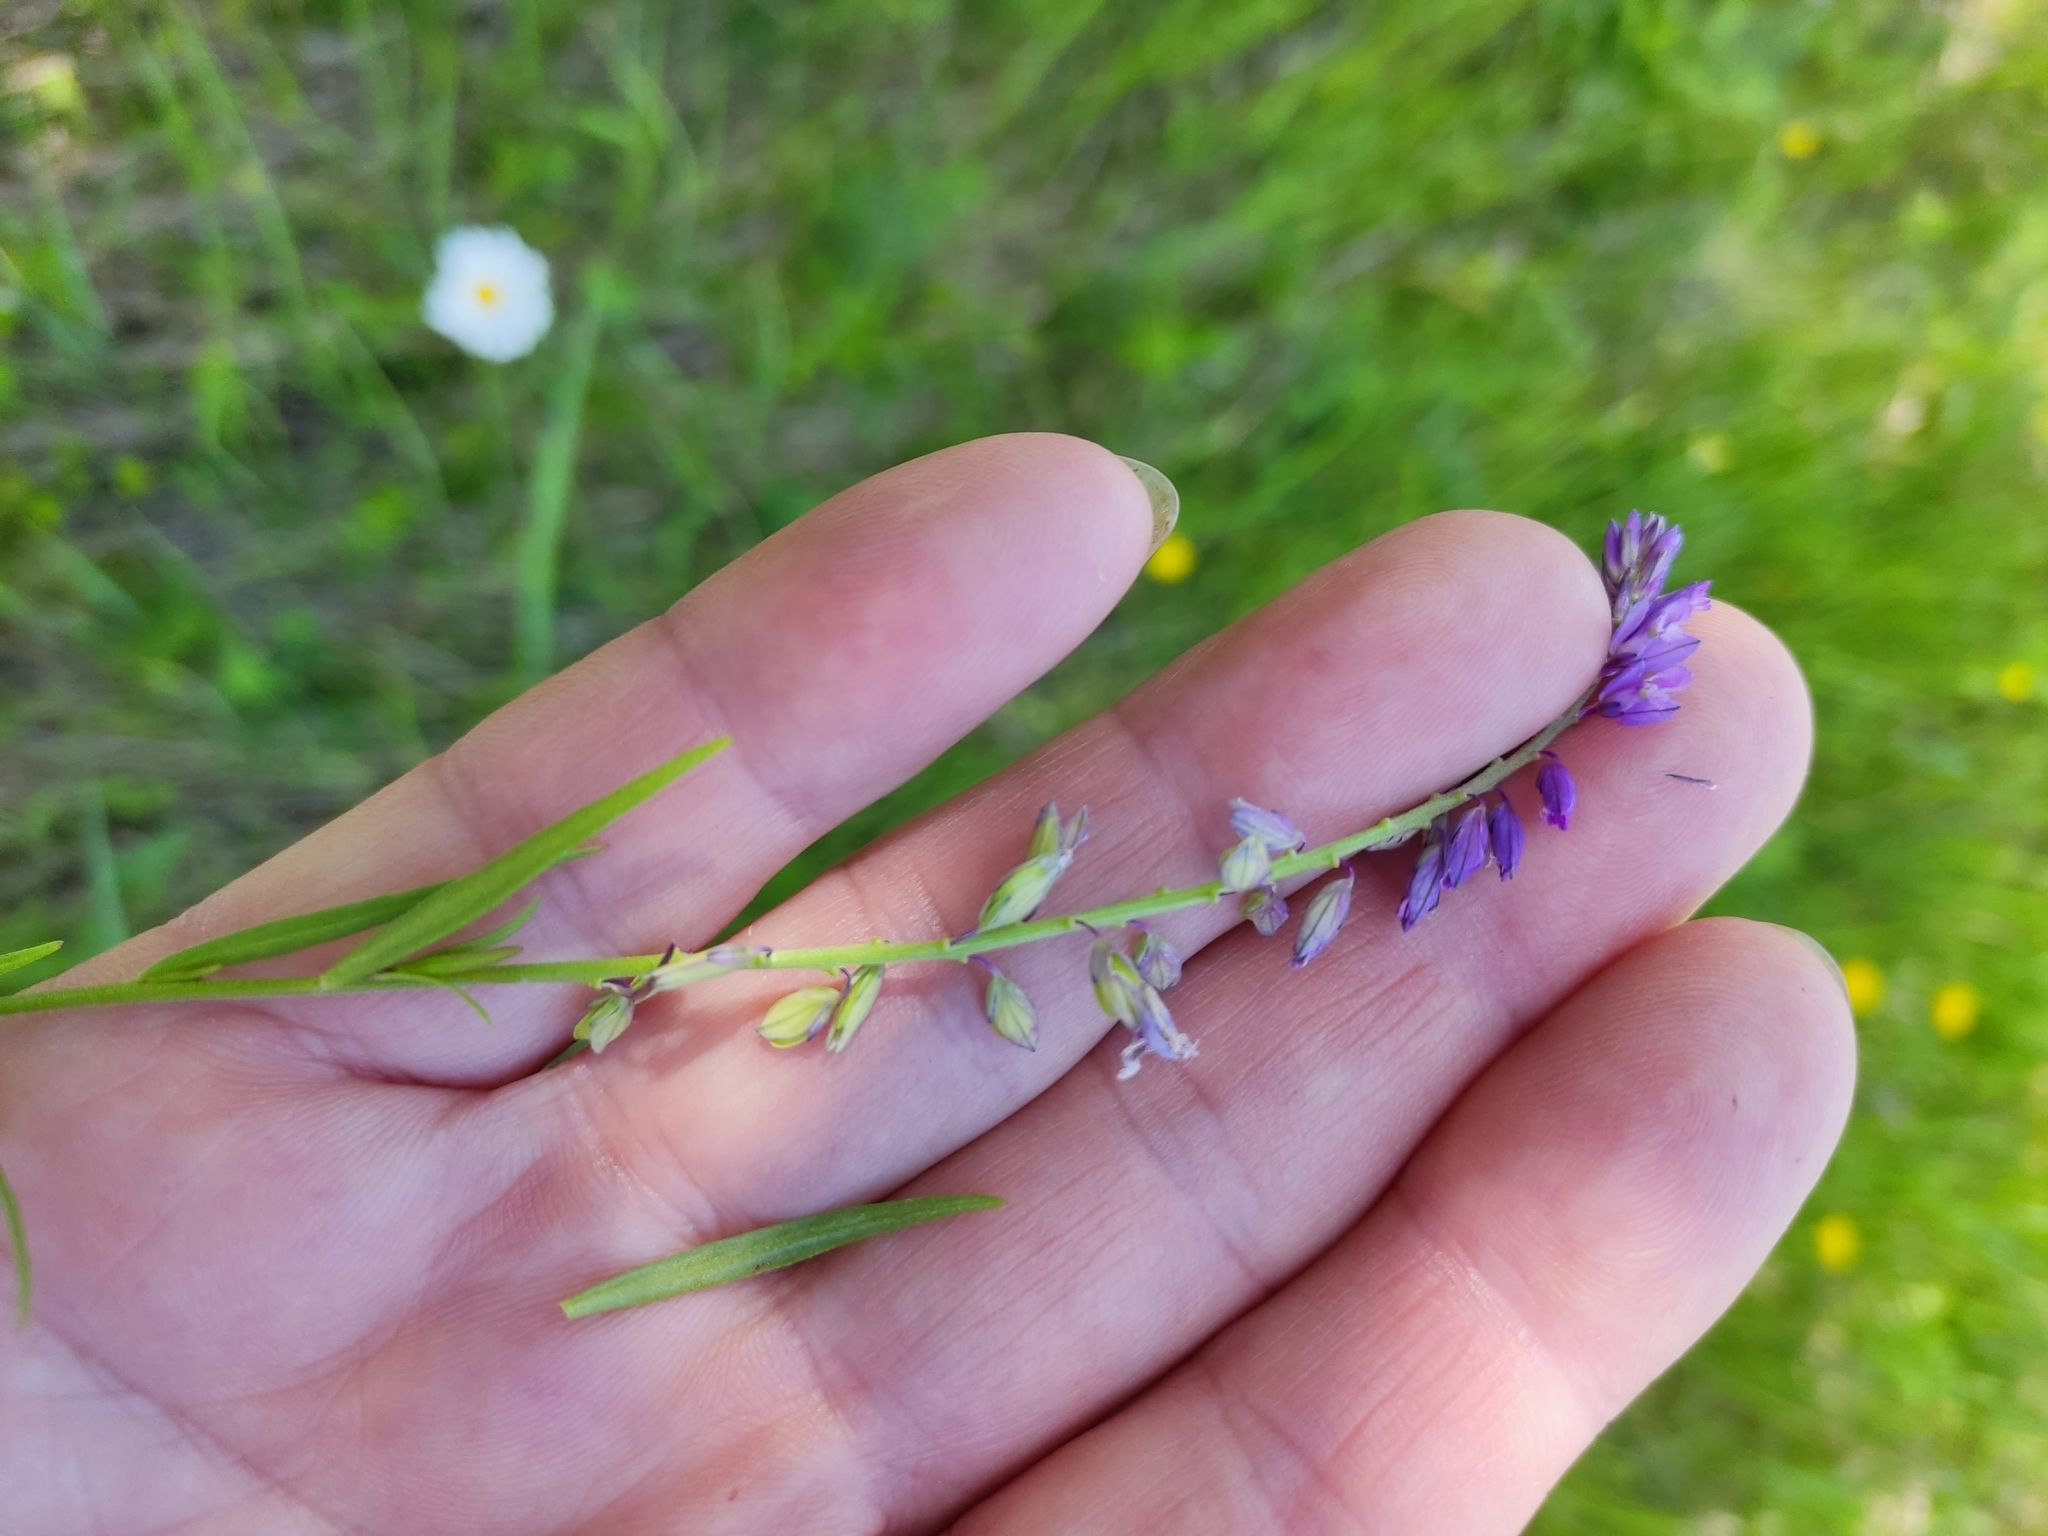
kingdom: Plantae
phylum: Tracheophyta
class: Magnoliopsida
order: Fabales
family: Polygalaceae
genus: Polygala
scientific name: Polygala comosa
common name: Tufted milkwort
